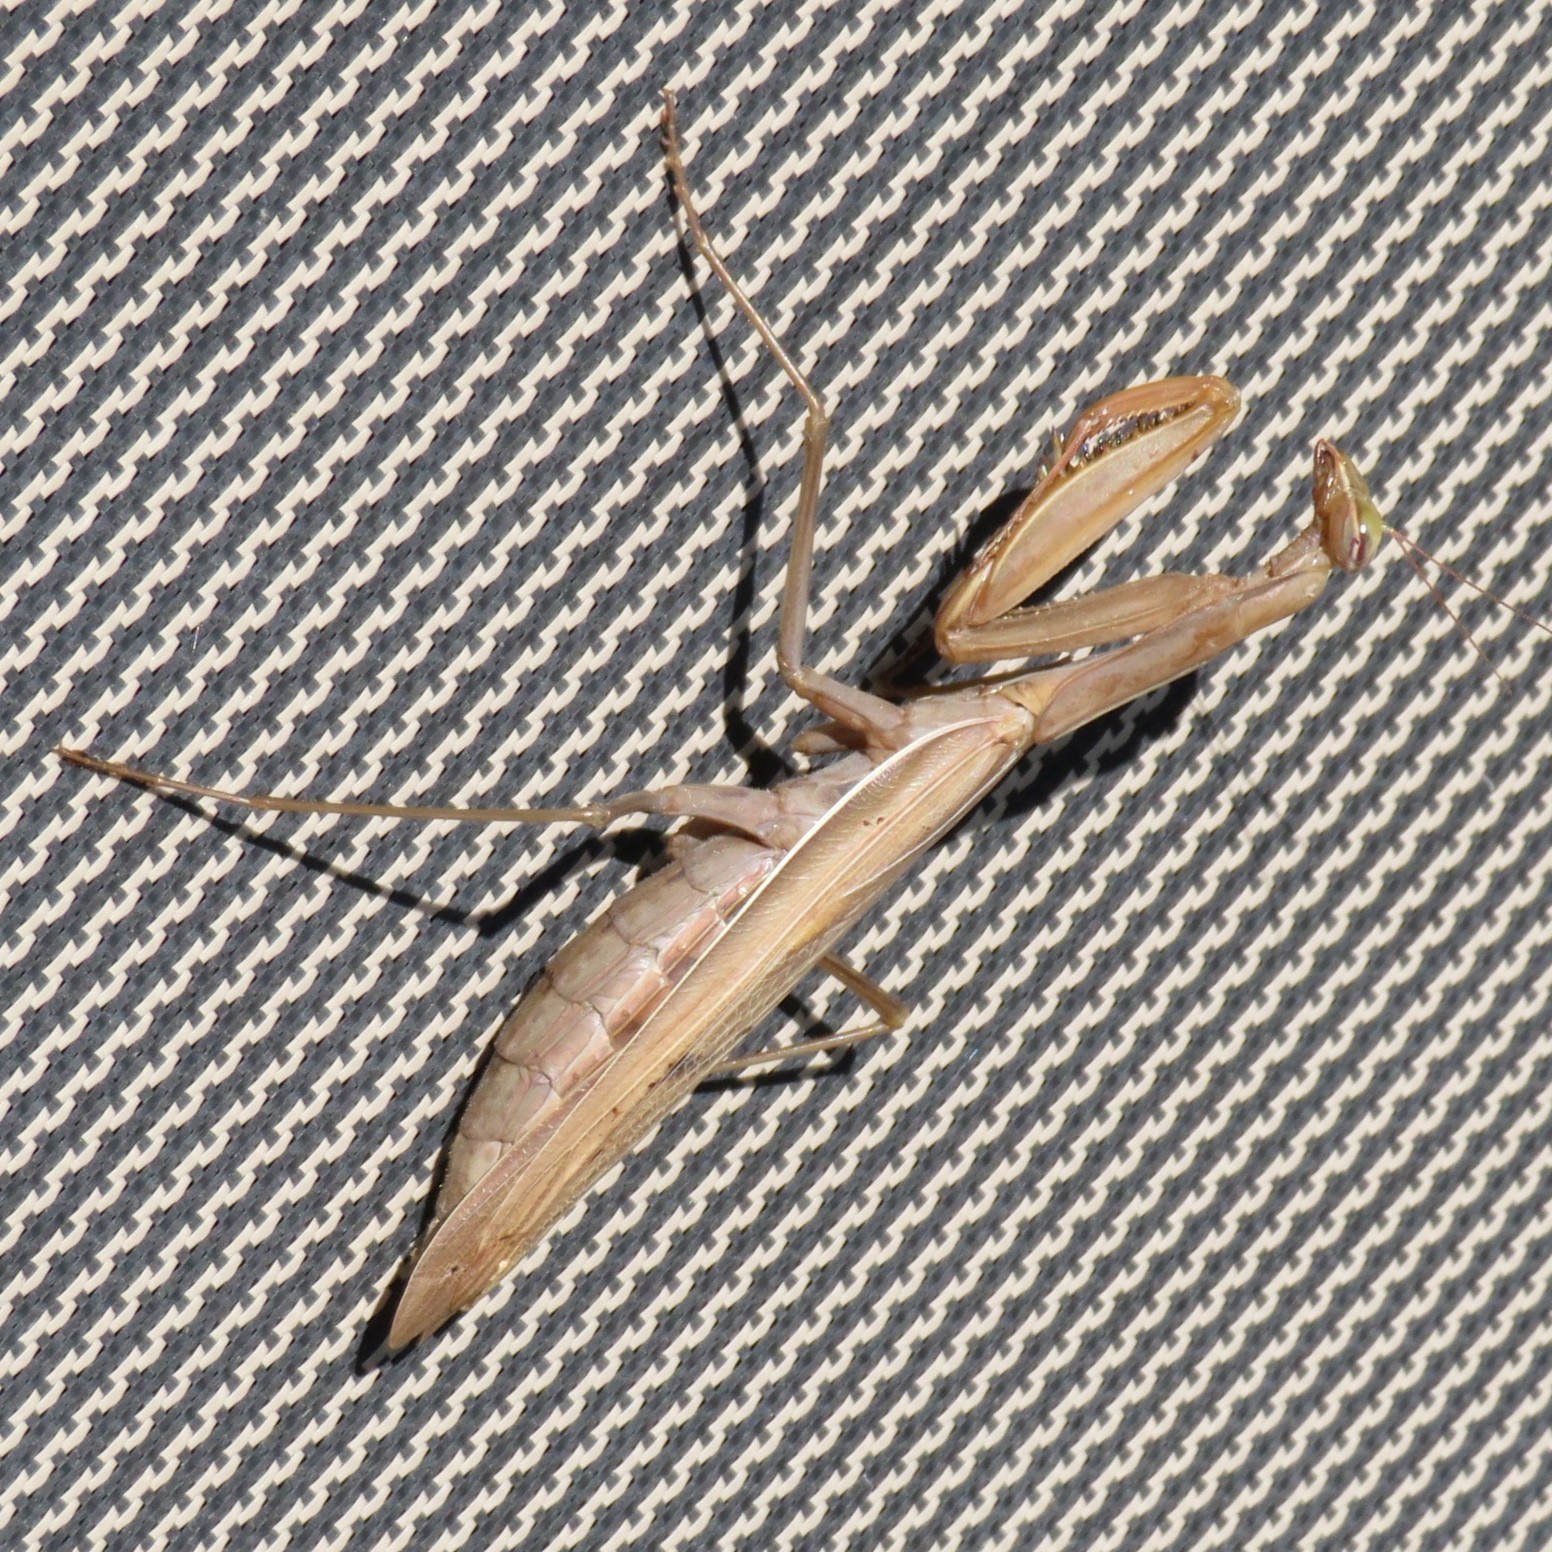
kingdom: Animalia
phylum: Arthropoda
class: Insecta
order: Mantodea
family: Mantidae
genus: Mantis
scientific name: Mantis religiosa
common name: Praying mantis
